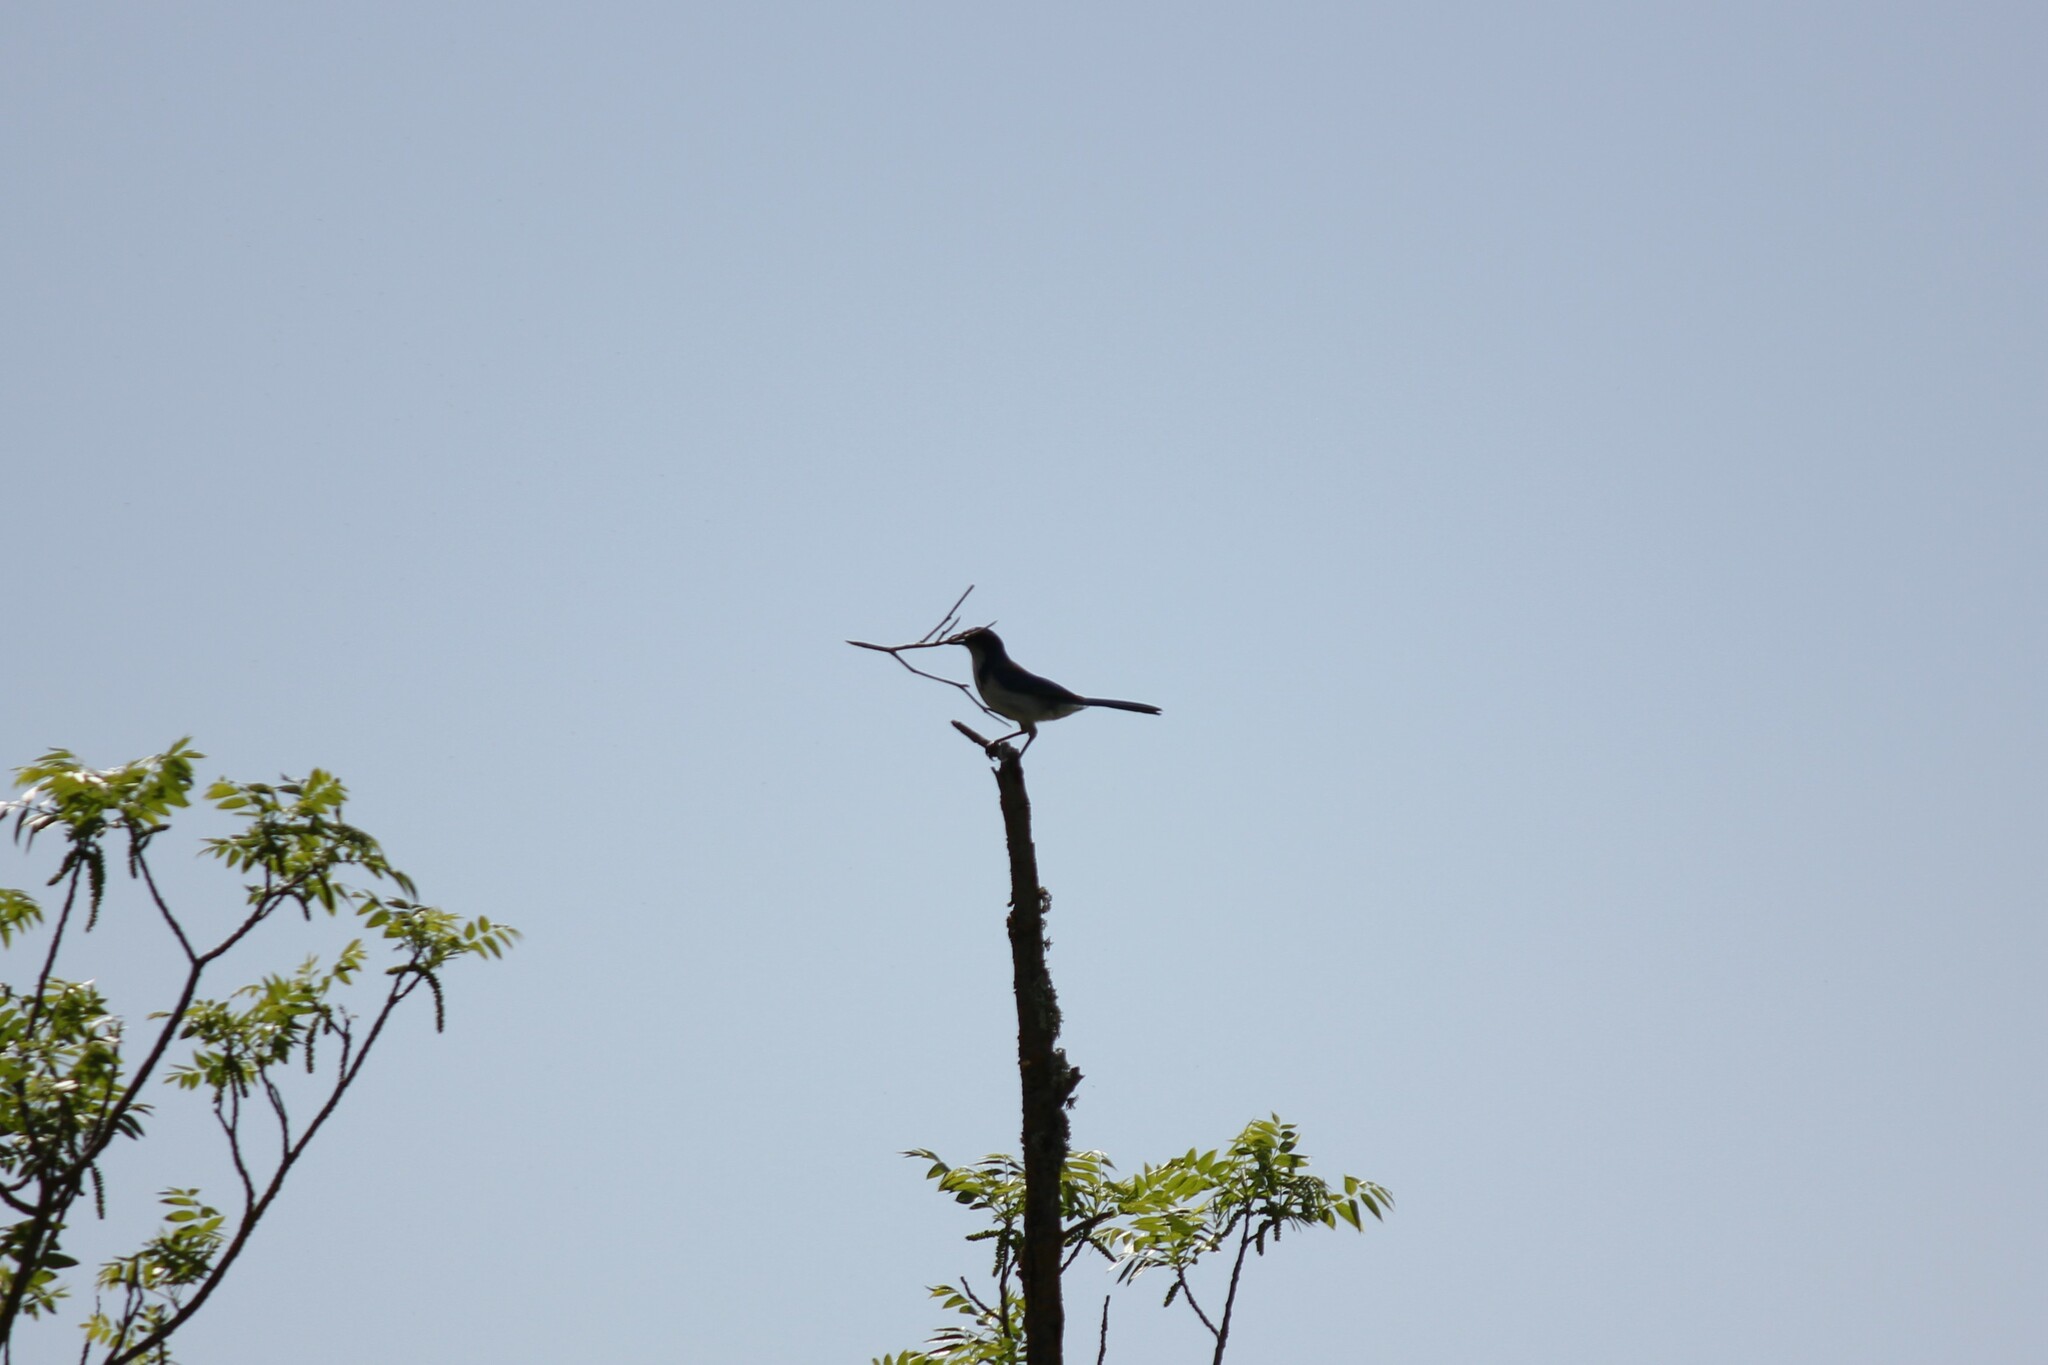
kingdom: Animalia
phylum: Chordata
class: Aves
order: Passeriformes
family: Corvidae
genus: Aphelocoma
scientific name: Aphelocoma californica
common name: California scrub-jay
